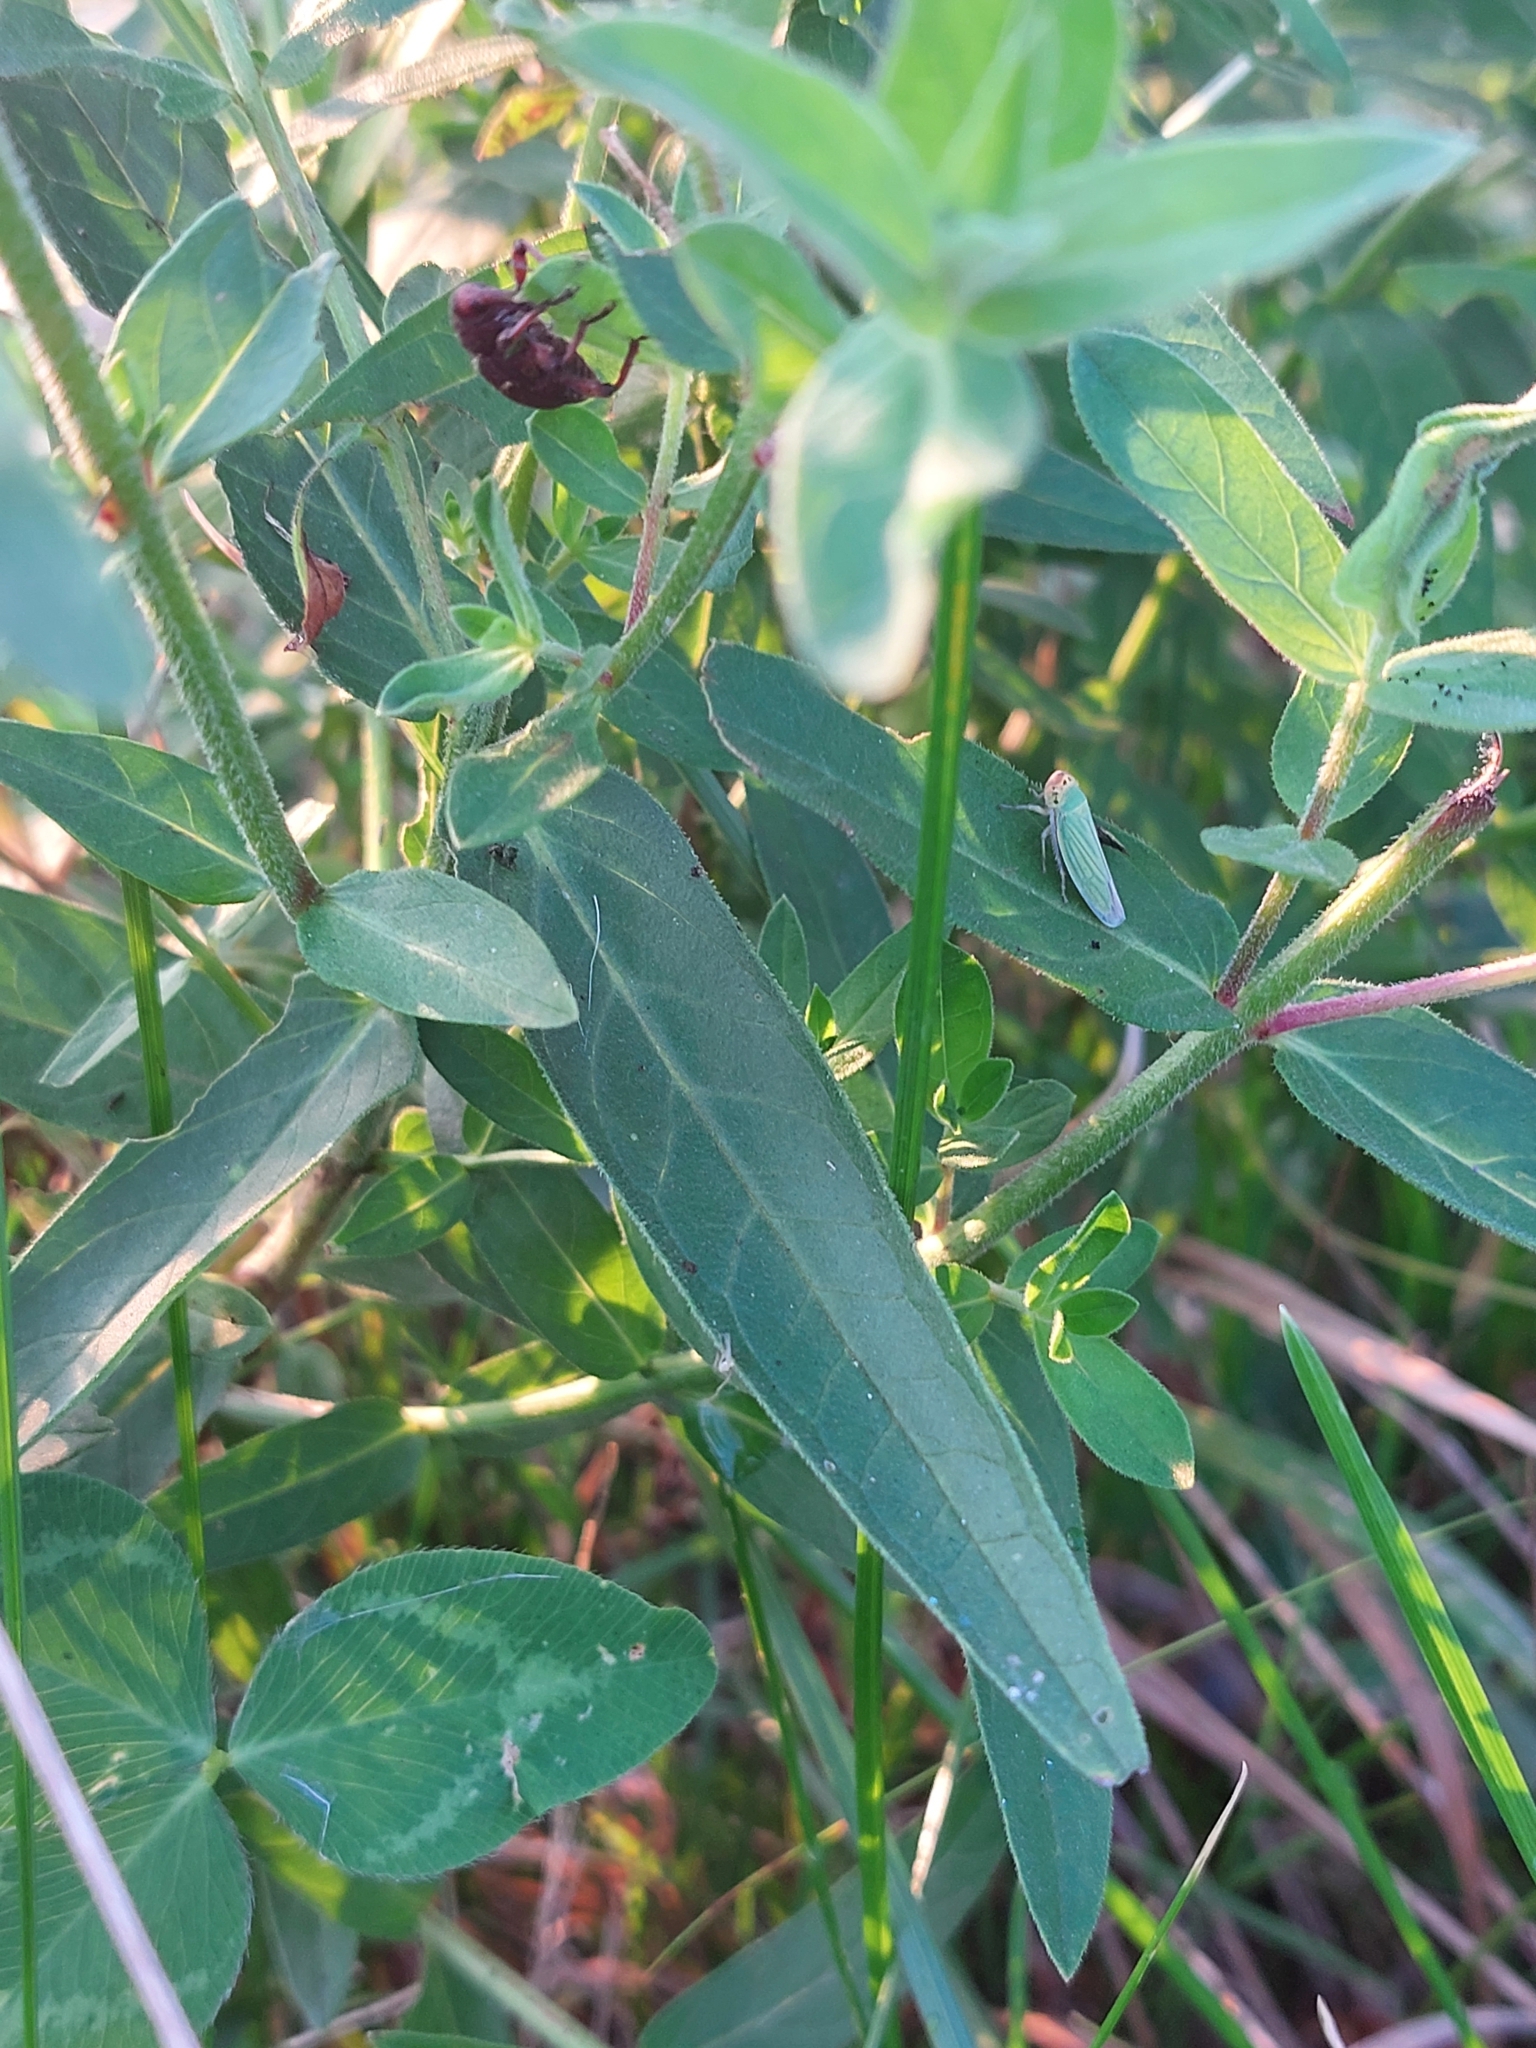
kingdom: Plantae
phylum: Tracheophyta
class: Magnoliopsida
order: Myrtales
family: Lythraceae
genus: Lythrum
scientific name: Lythrum salicaria
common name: Purple loosestrife
